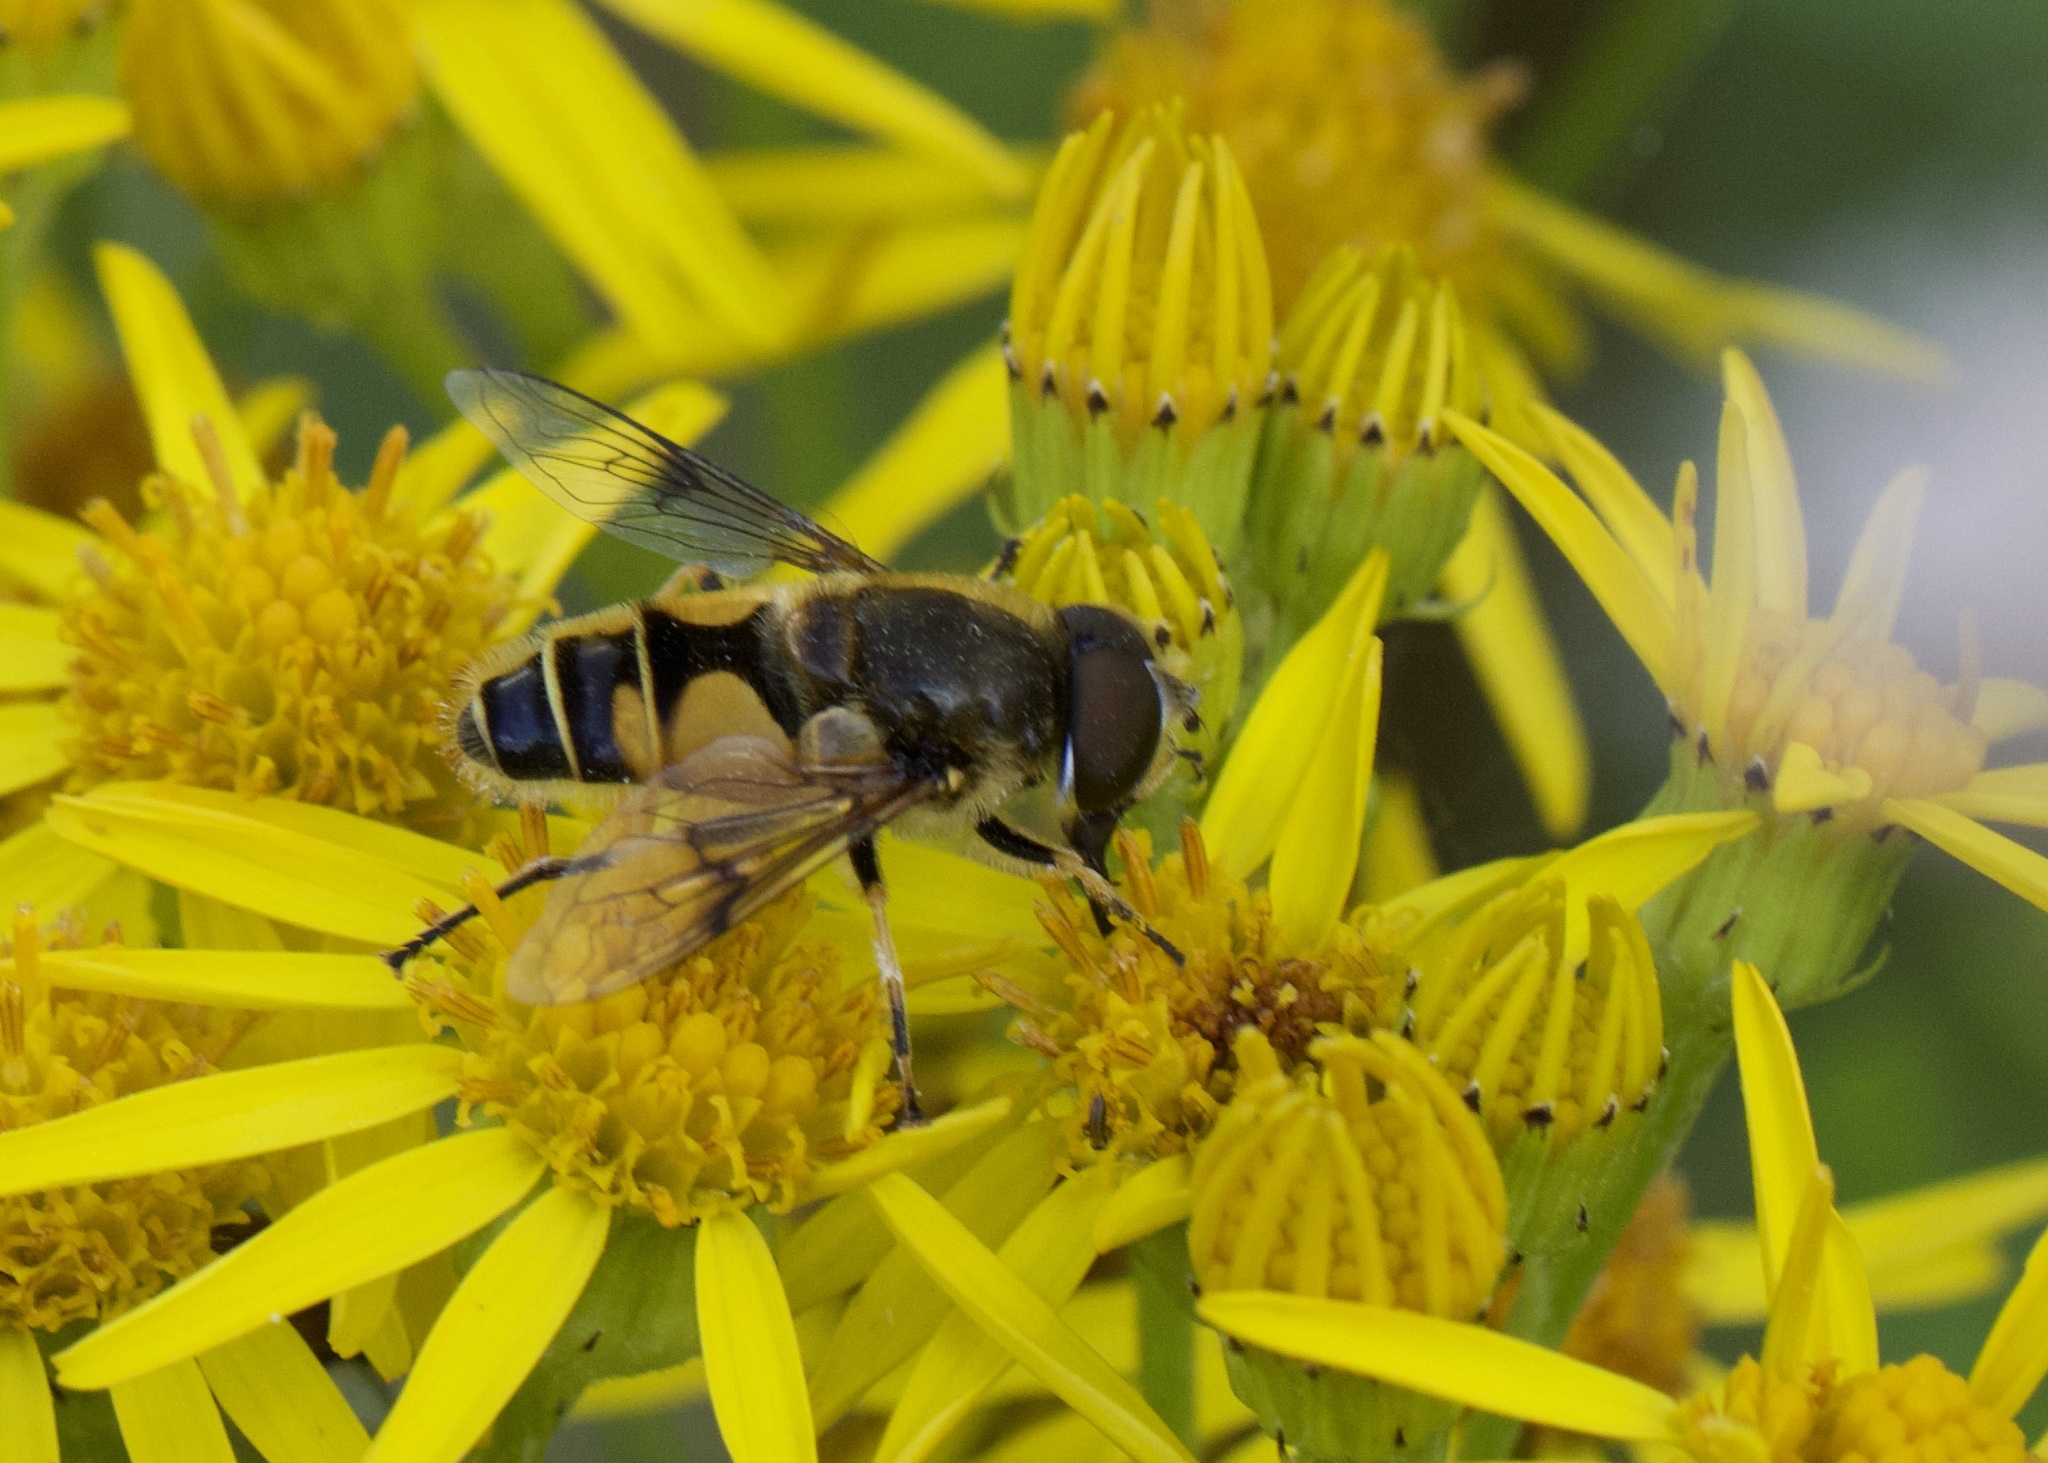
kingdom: Animalia
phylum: Arthropoda
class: Insecta
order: Diptera
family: Syrphidae
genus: Cheilosia
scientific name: Cheilosia morio
